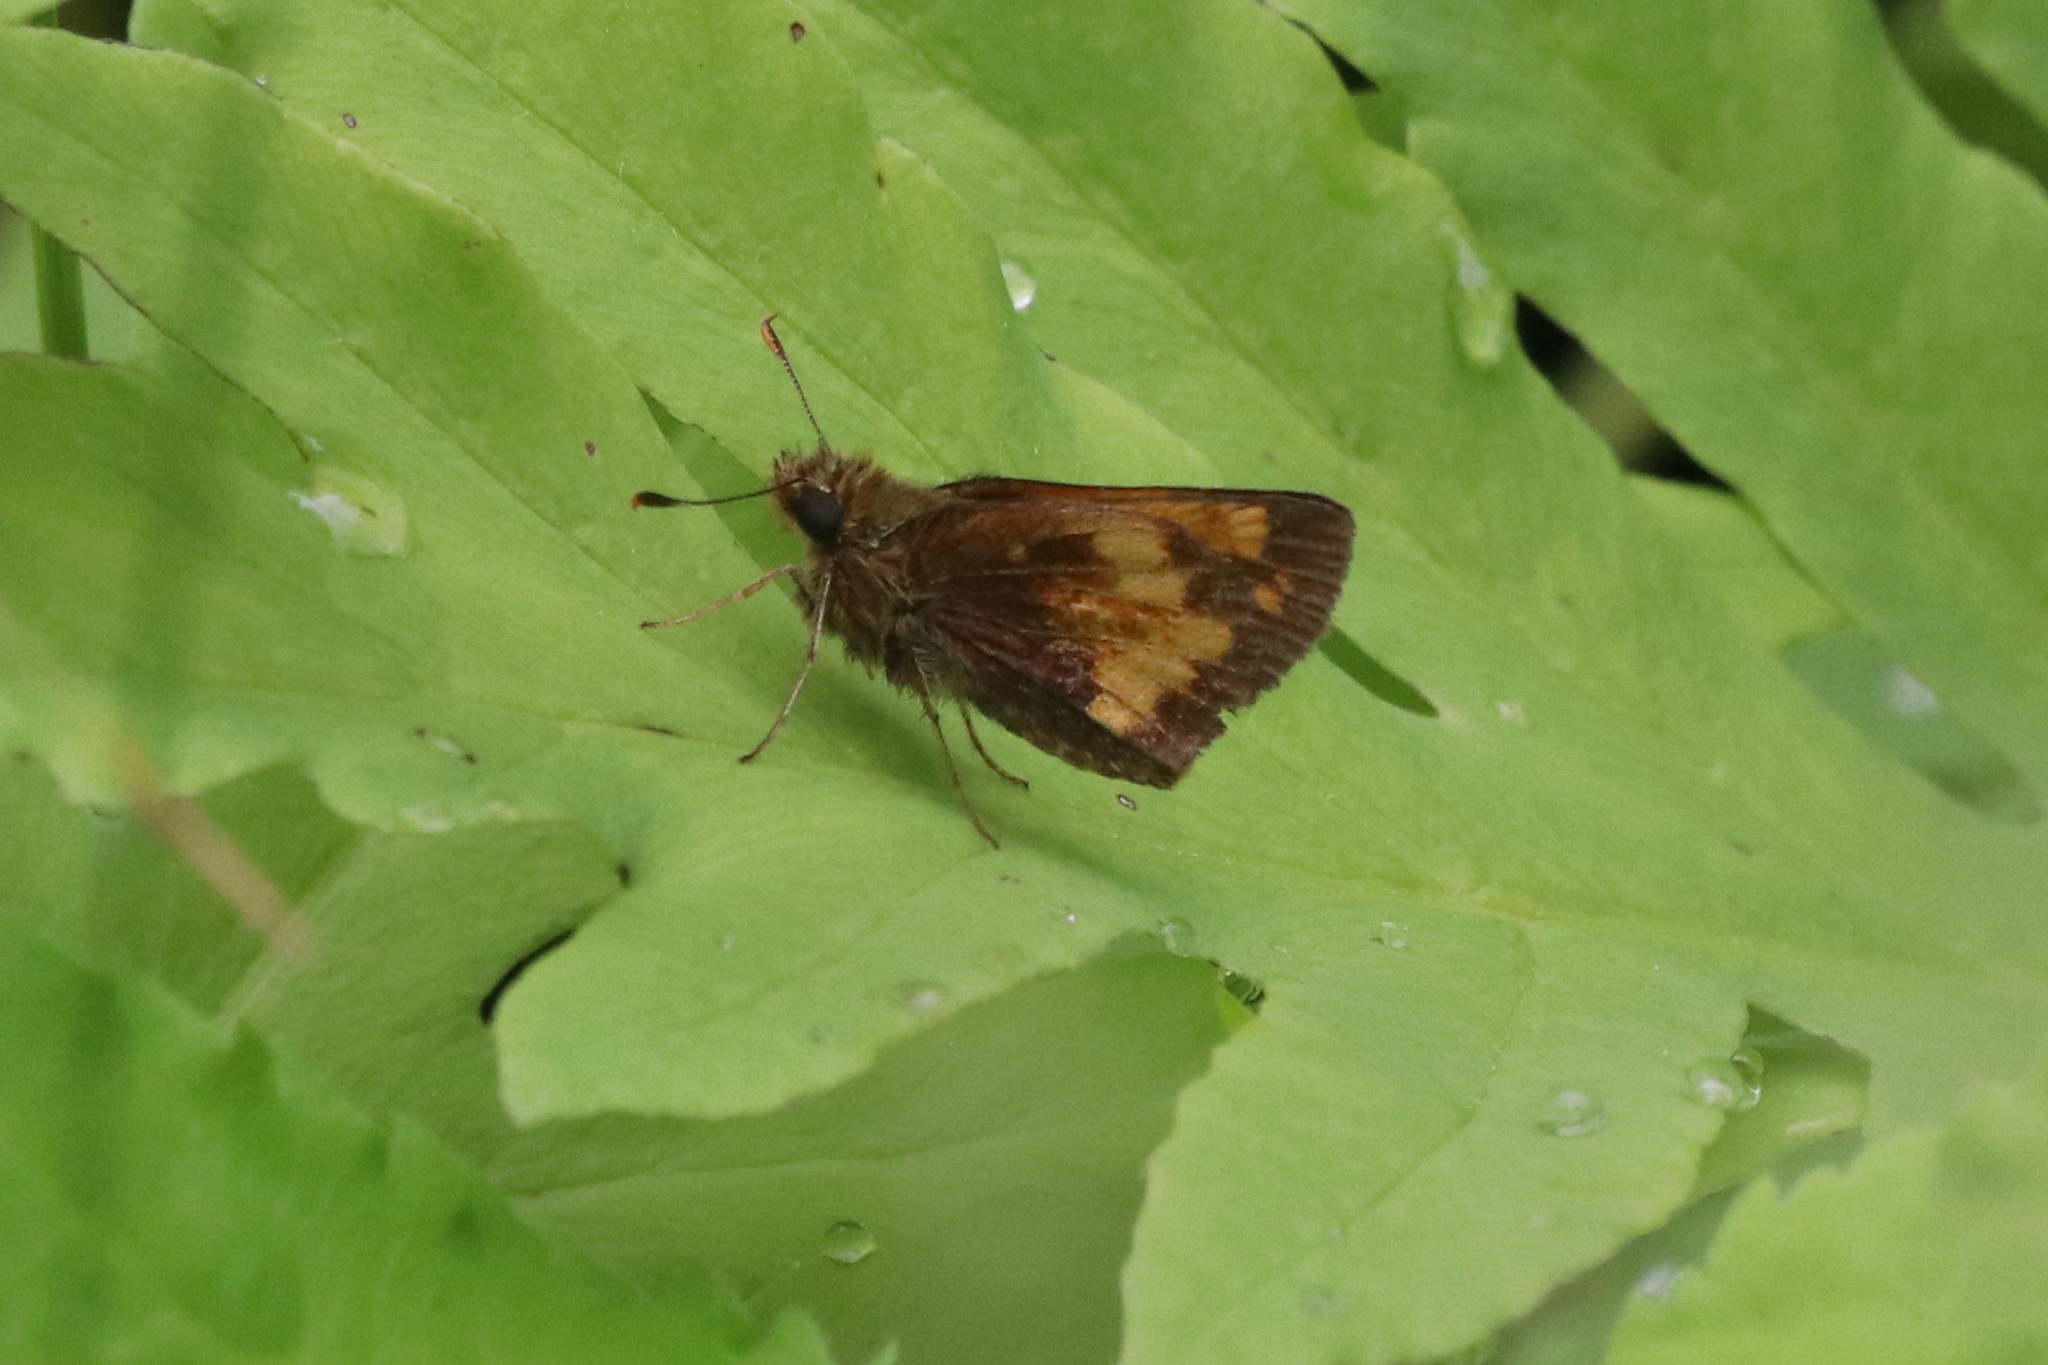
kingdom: Animalia
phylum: Arthropoda
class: Insecta
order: Lepidoptera
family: Hesperiidae
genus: Lon
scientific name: Lon hobomok
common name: Hobomok skipper
